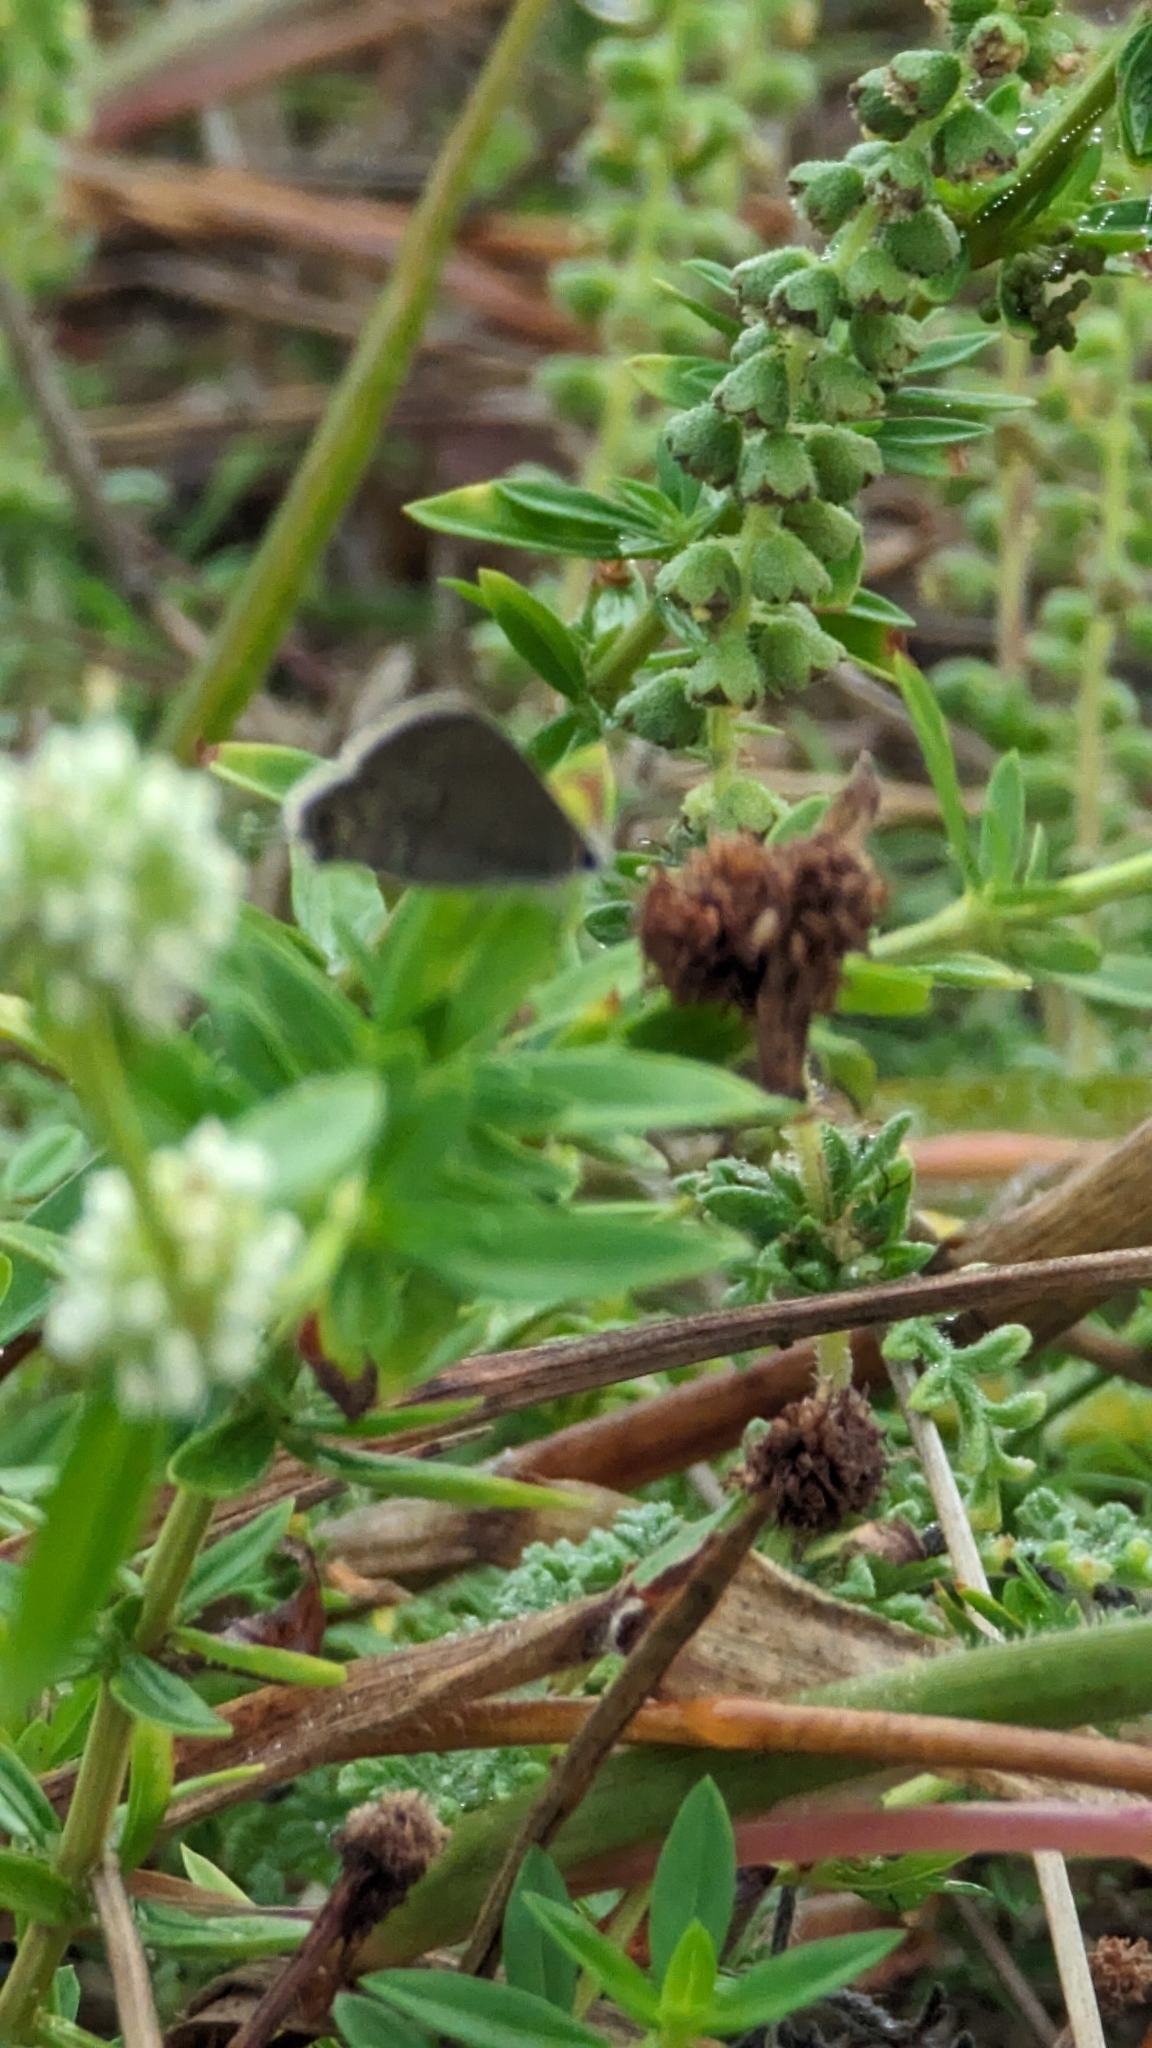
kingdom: Animalia
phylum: Arthropoda
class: Insecta
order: Lepidoptera
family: Lycaenidae
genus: Callicista
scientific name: Callicista columella
